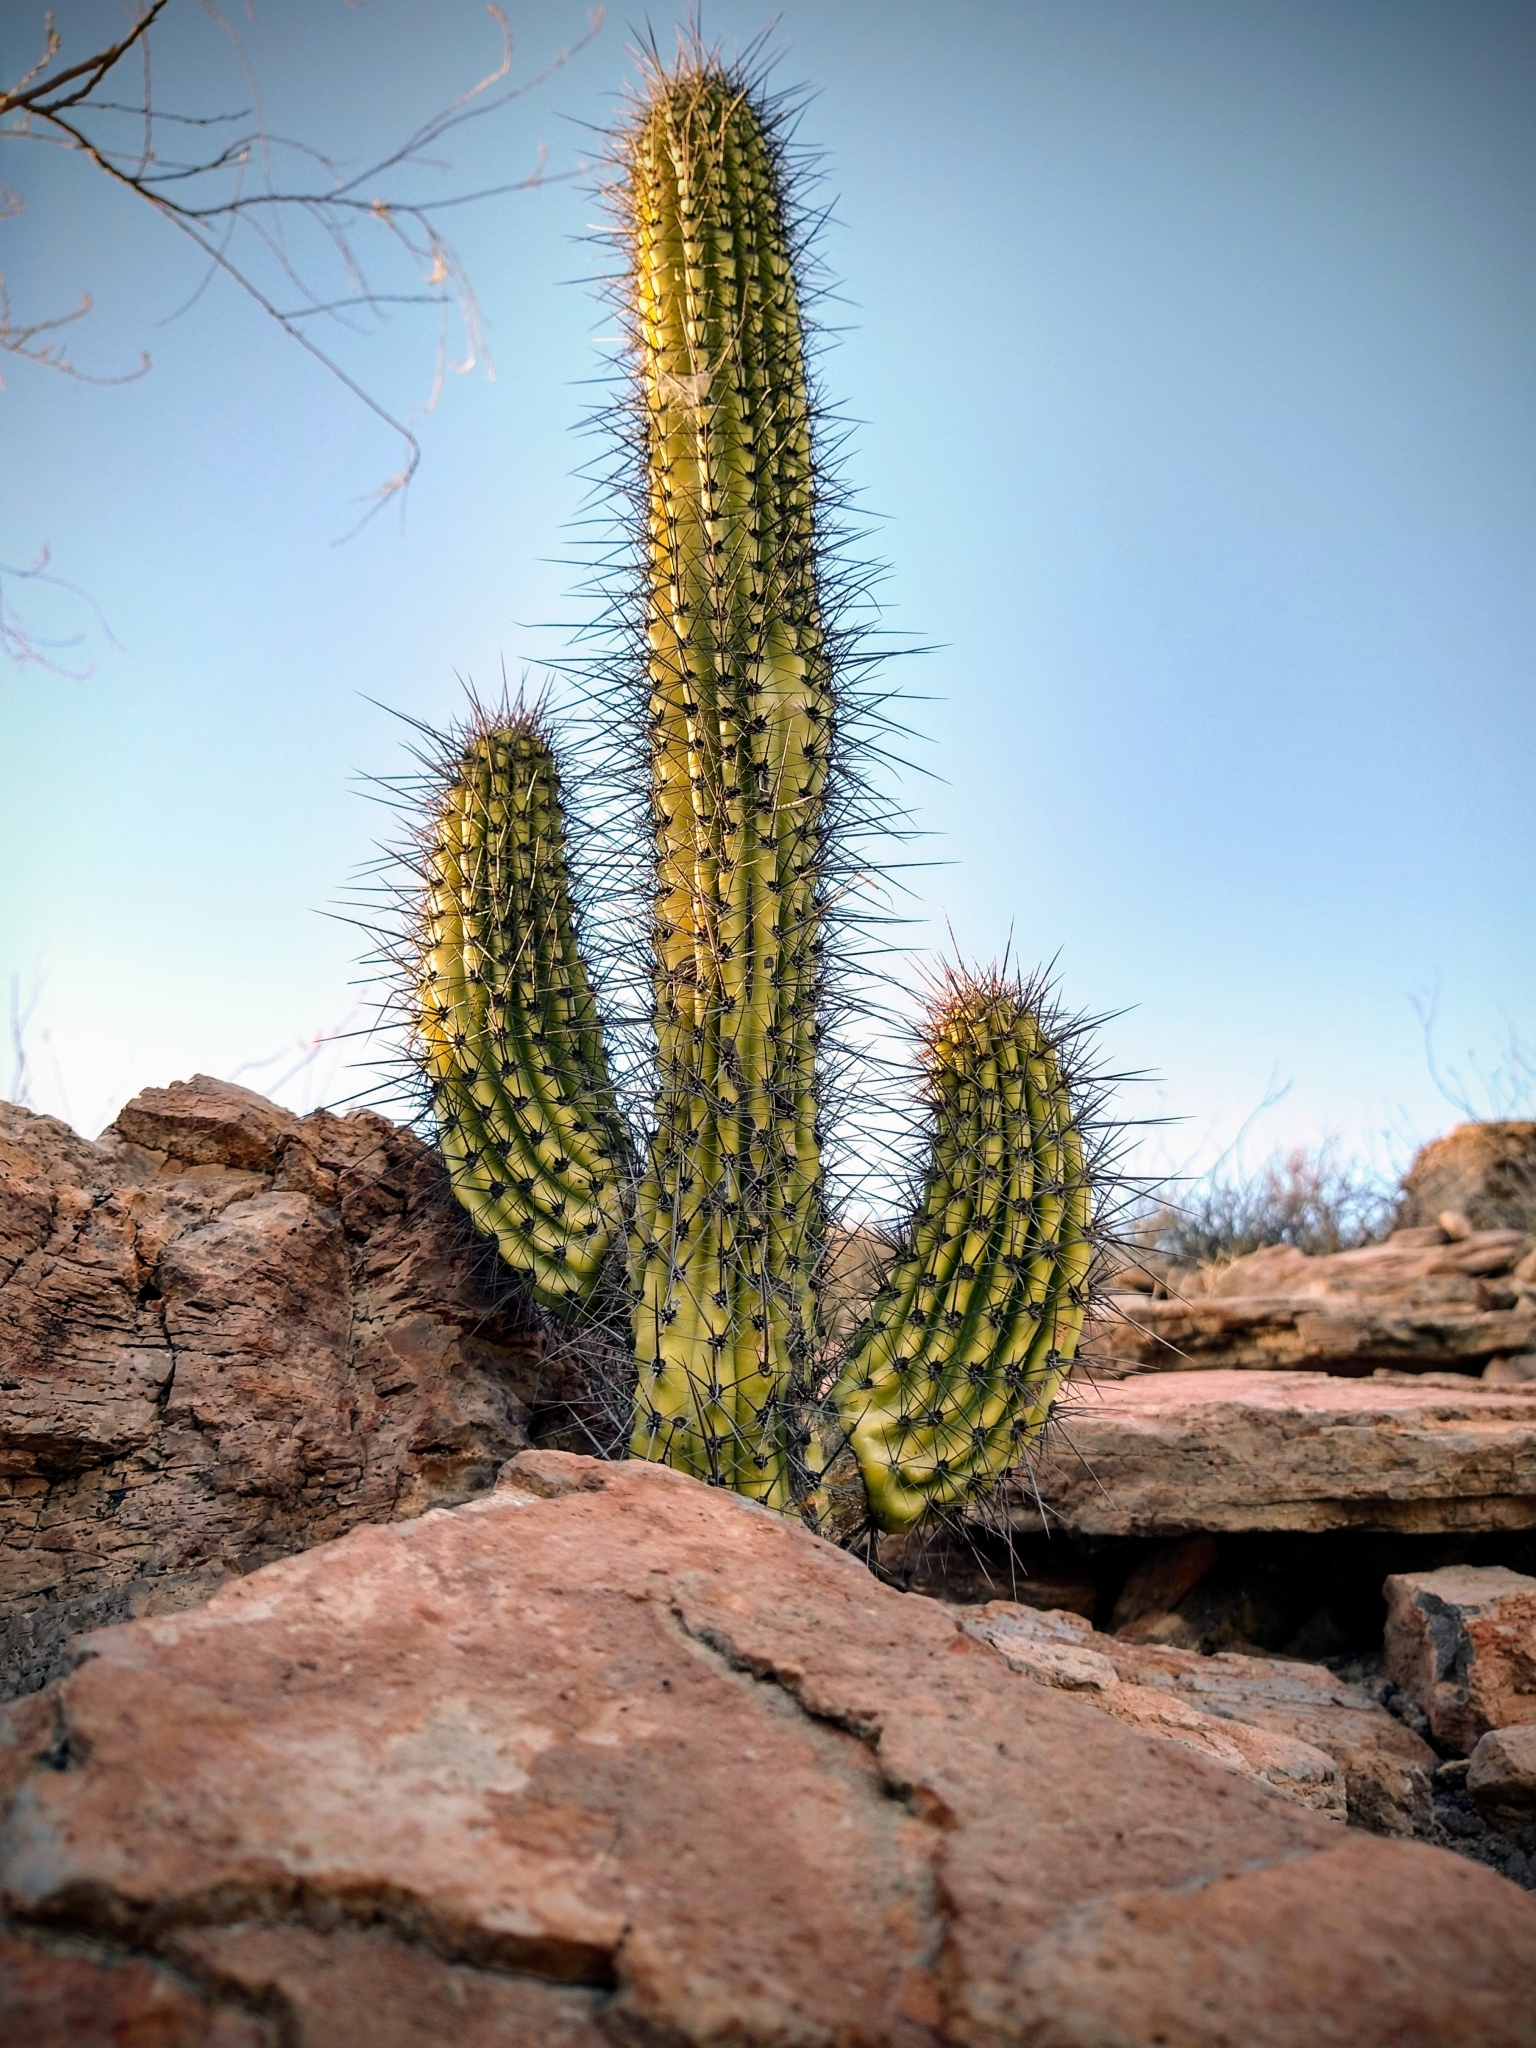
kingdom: Plantae
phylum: Tracheophyta
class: Magnoliopsida
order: Caryophyllales
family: Cactaceae
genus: Stenocereus
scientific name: Stenocereus thurberi
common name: Organ pipe cactus
